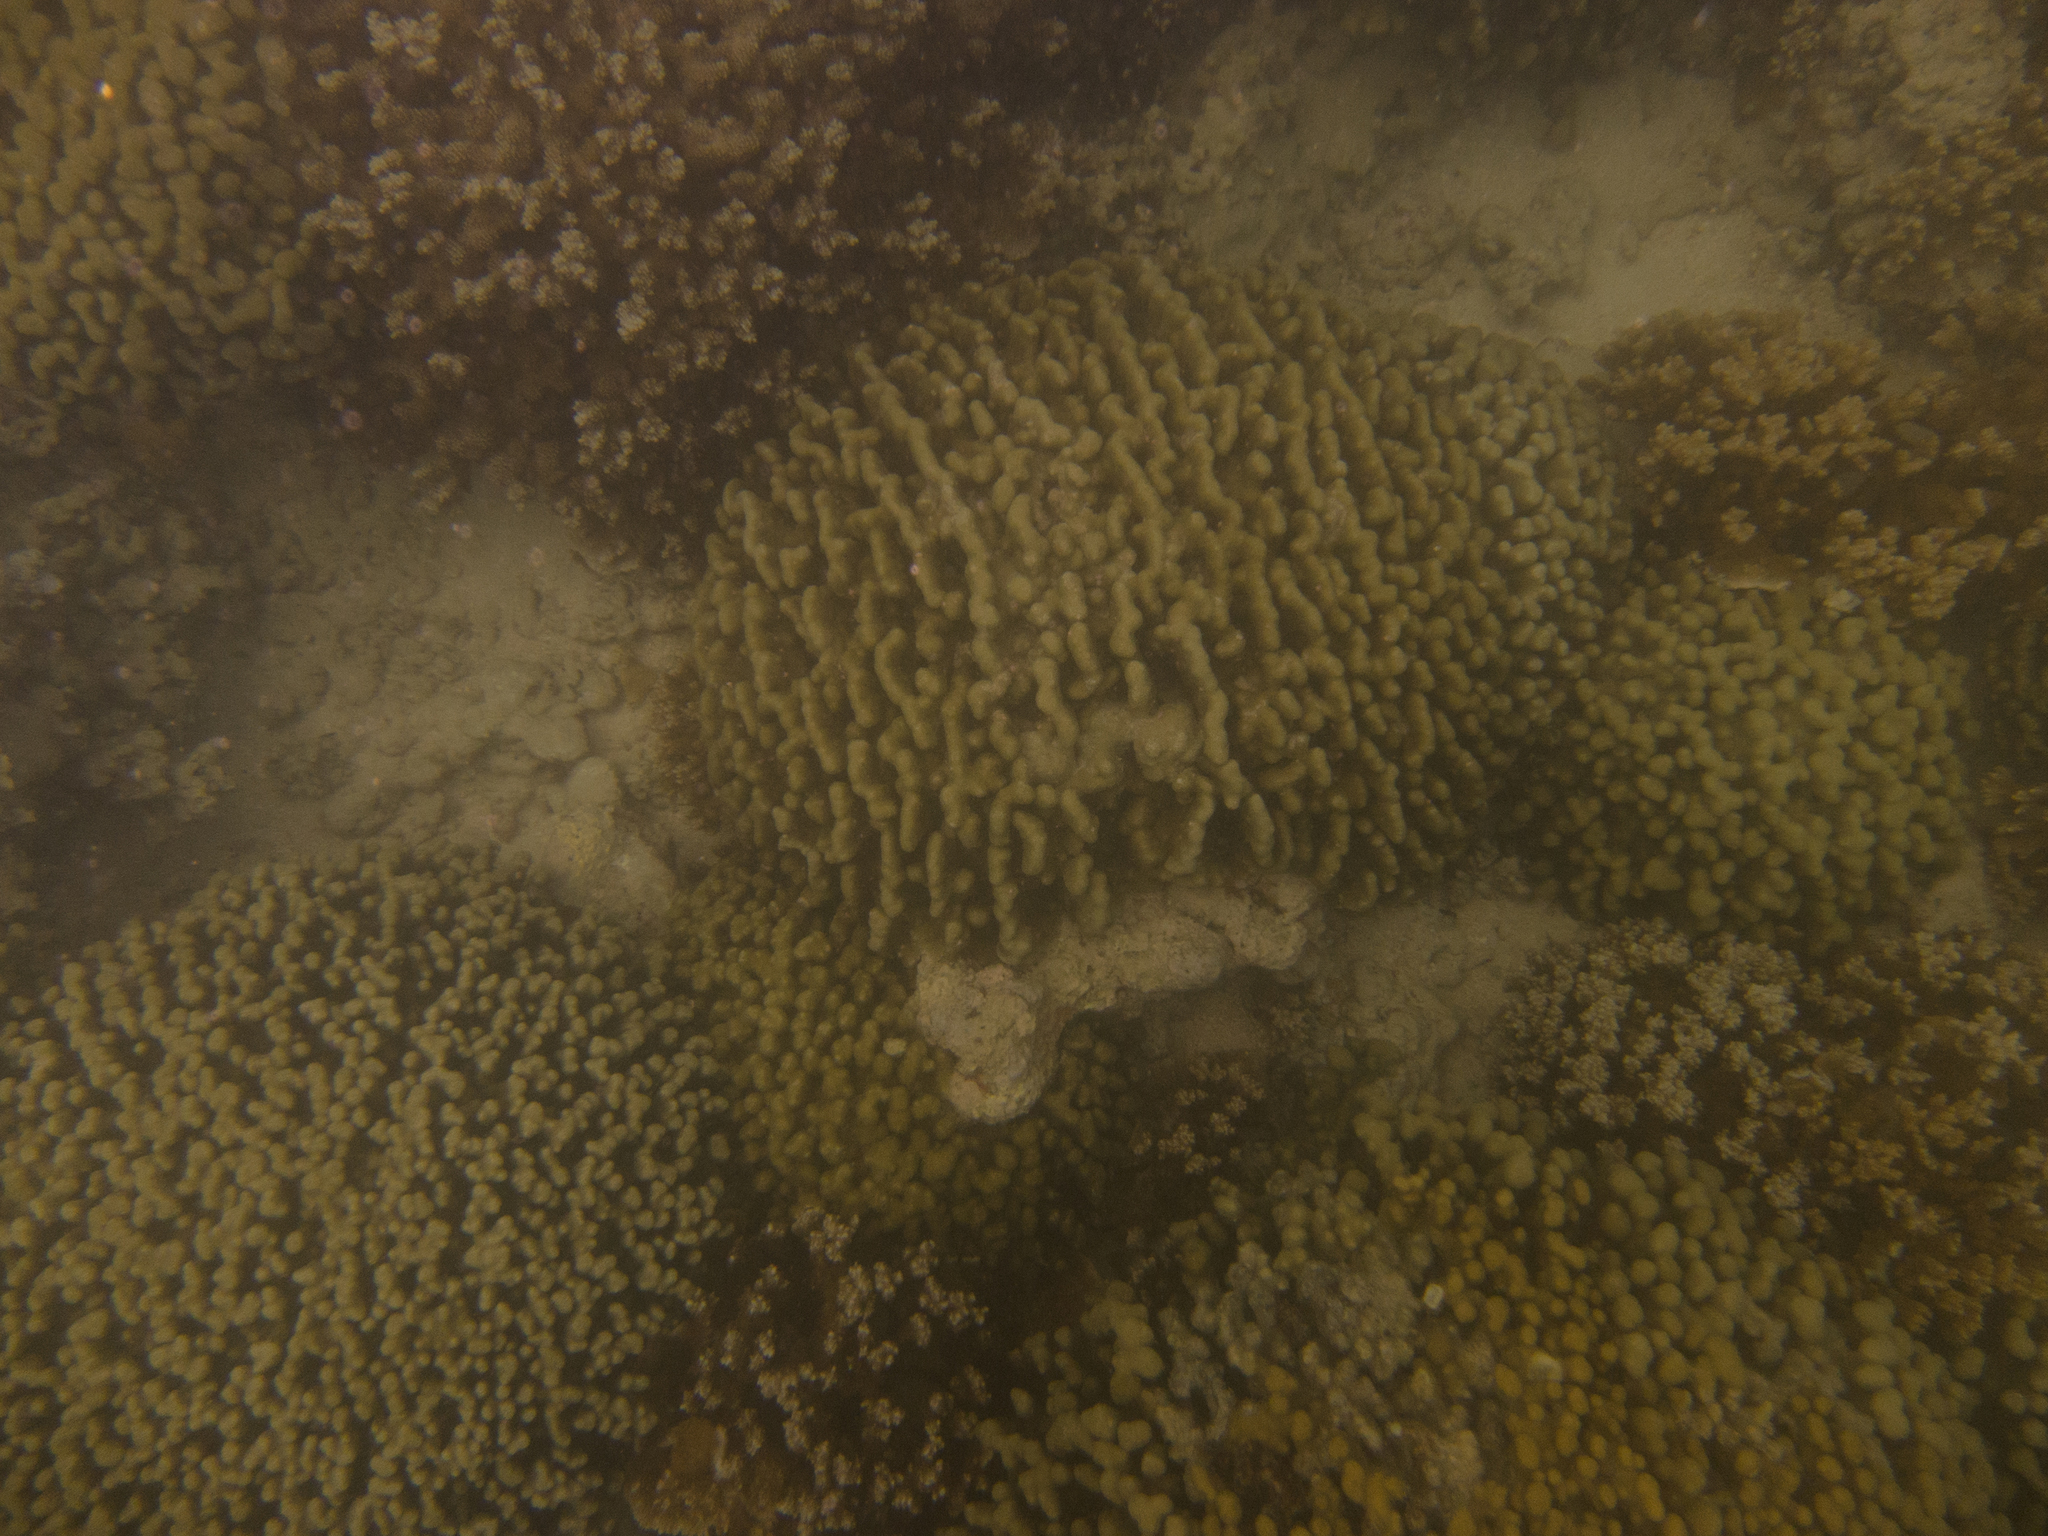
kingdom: Animalia
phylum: Cnidaria
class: Anthozoa
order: Scleractinia
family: Acroporidae
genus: Montipora
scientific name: Montipora capitata
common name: Pore coral
